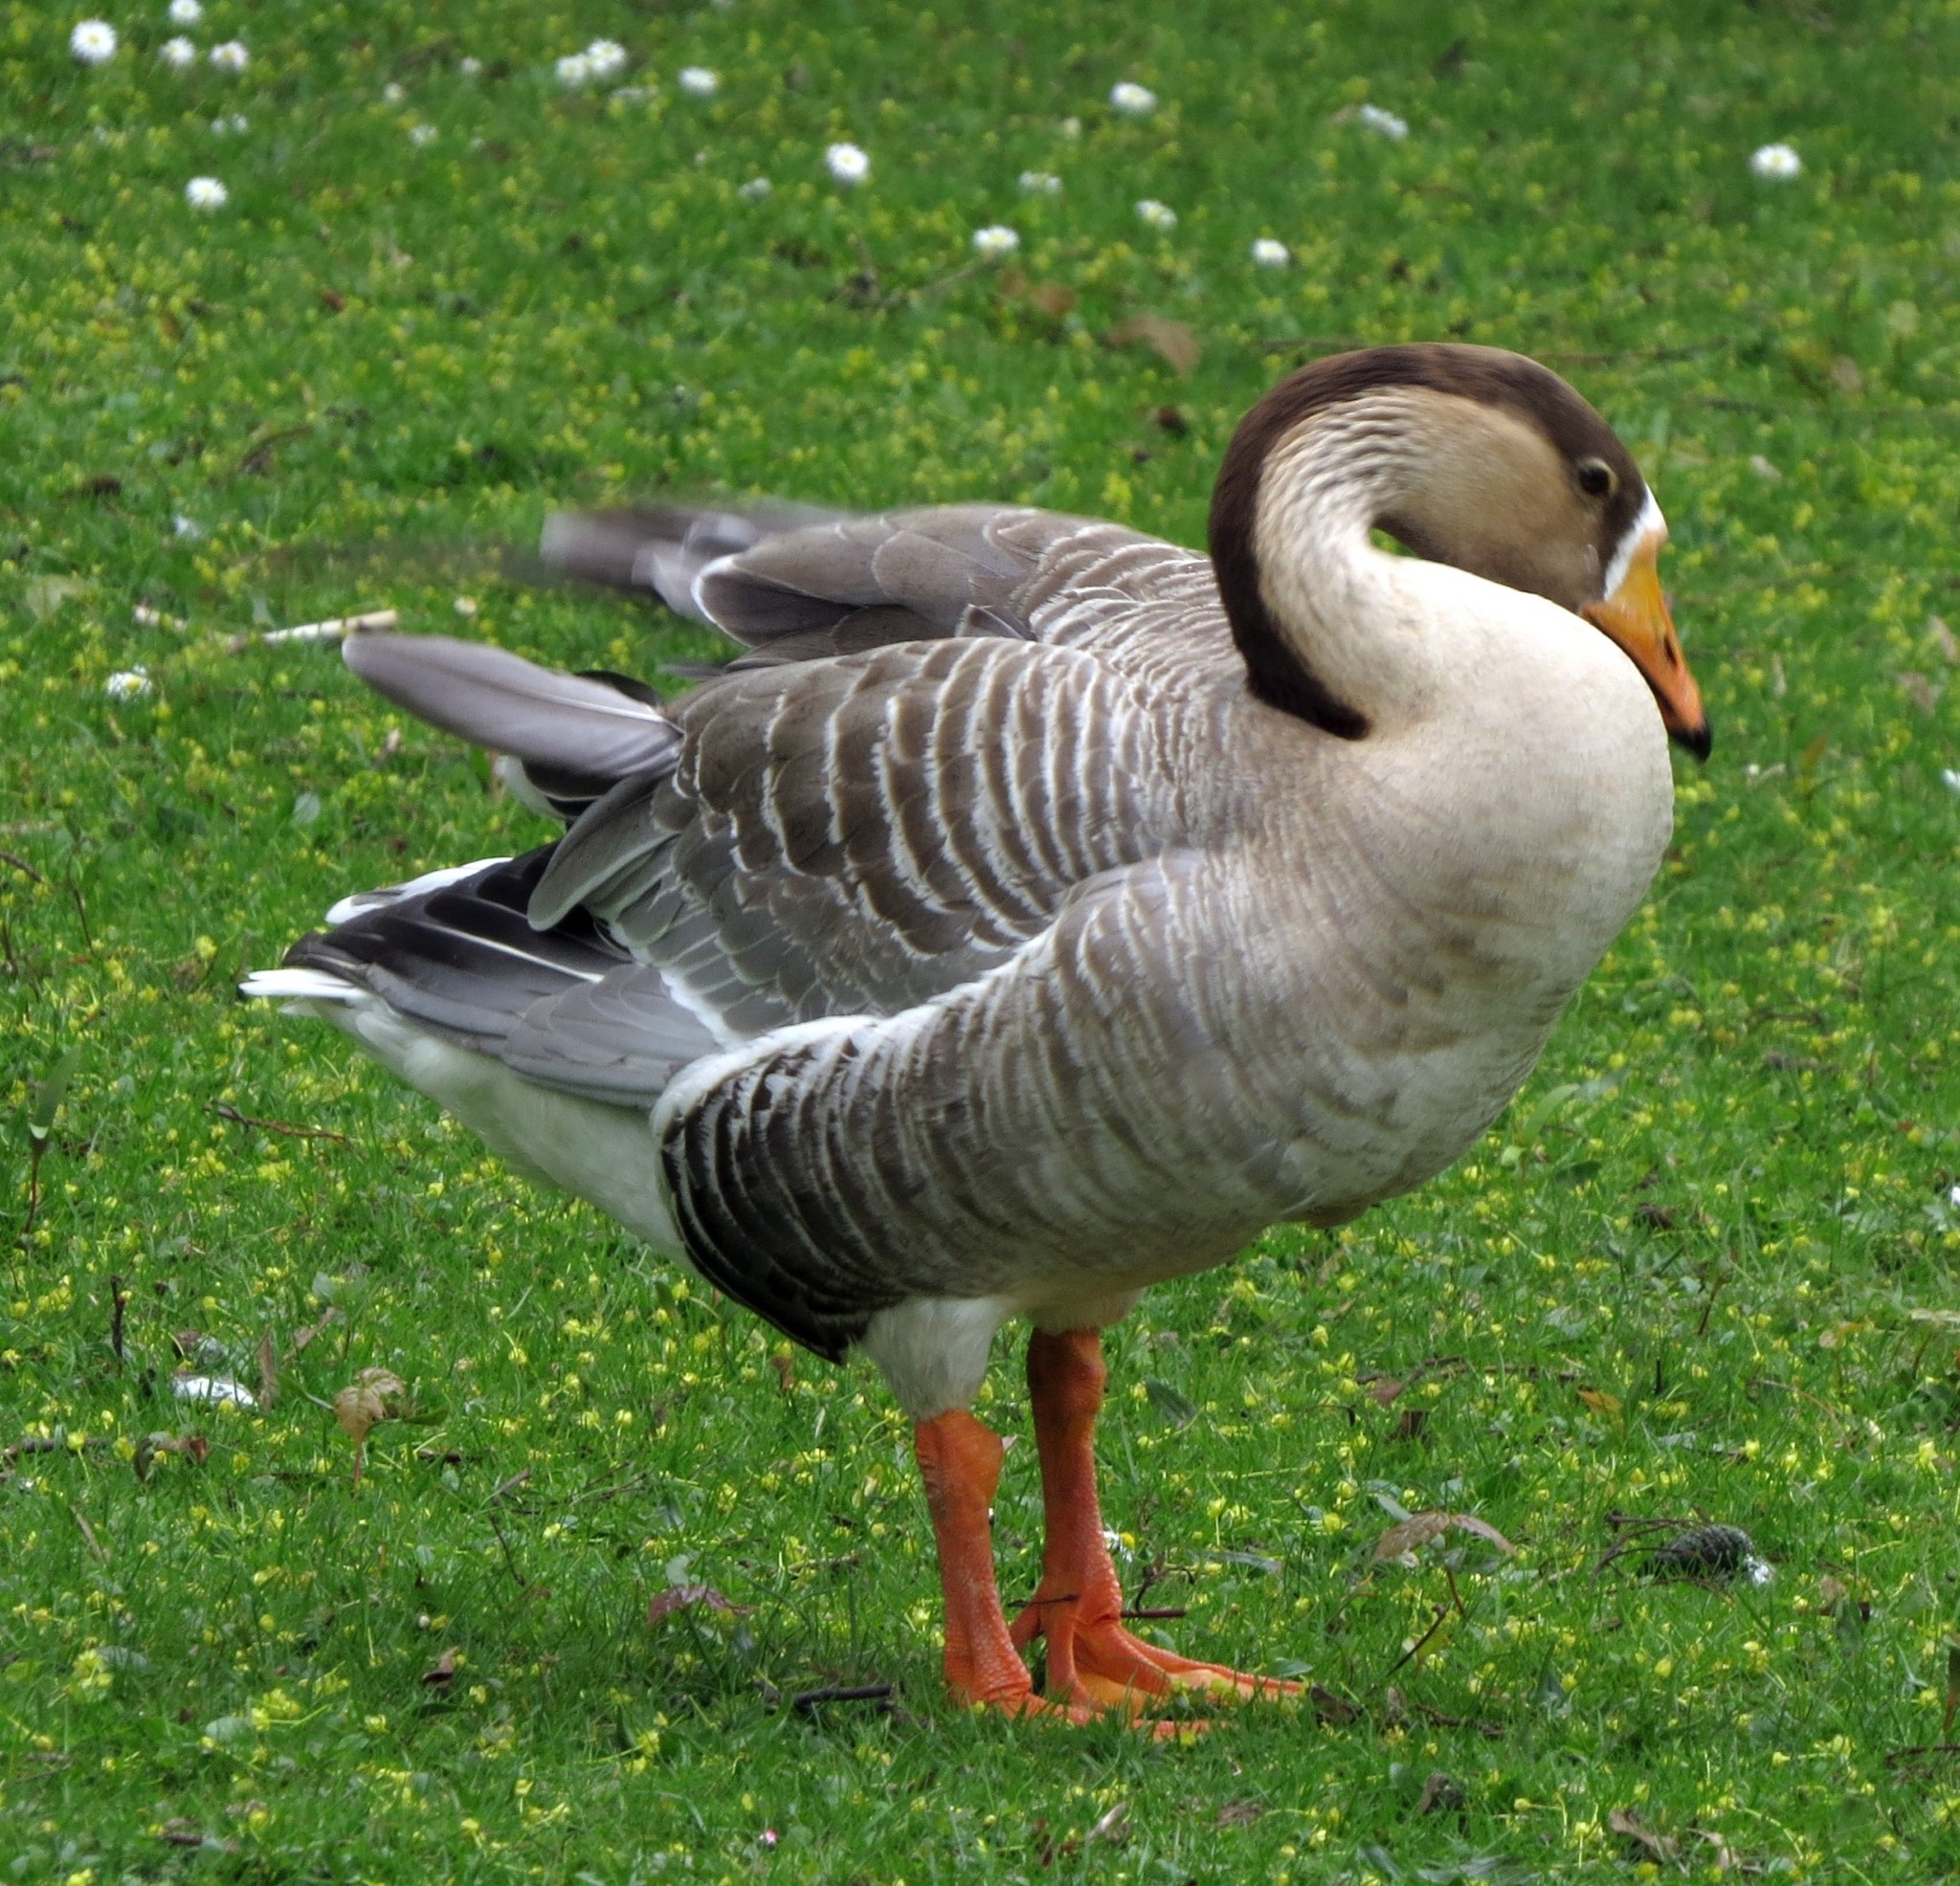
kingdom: Animalia
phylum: Chordata
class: Aves
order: Anseriformes
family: Anatidae
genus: Anser
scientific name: Anser
